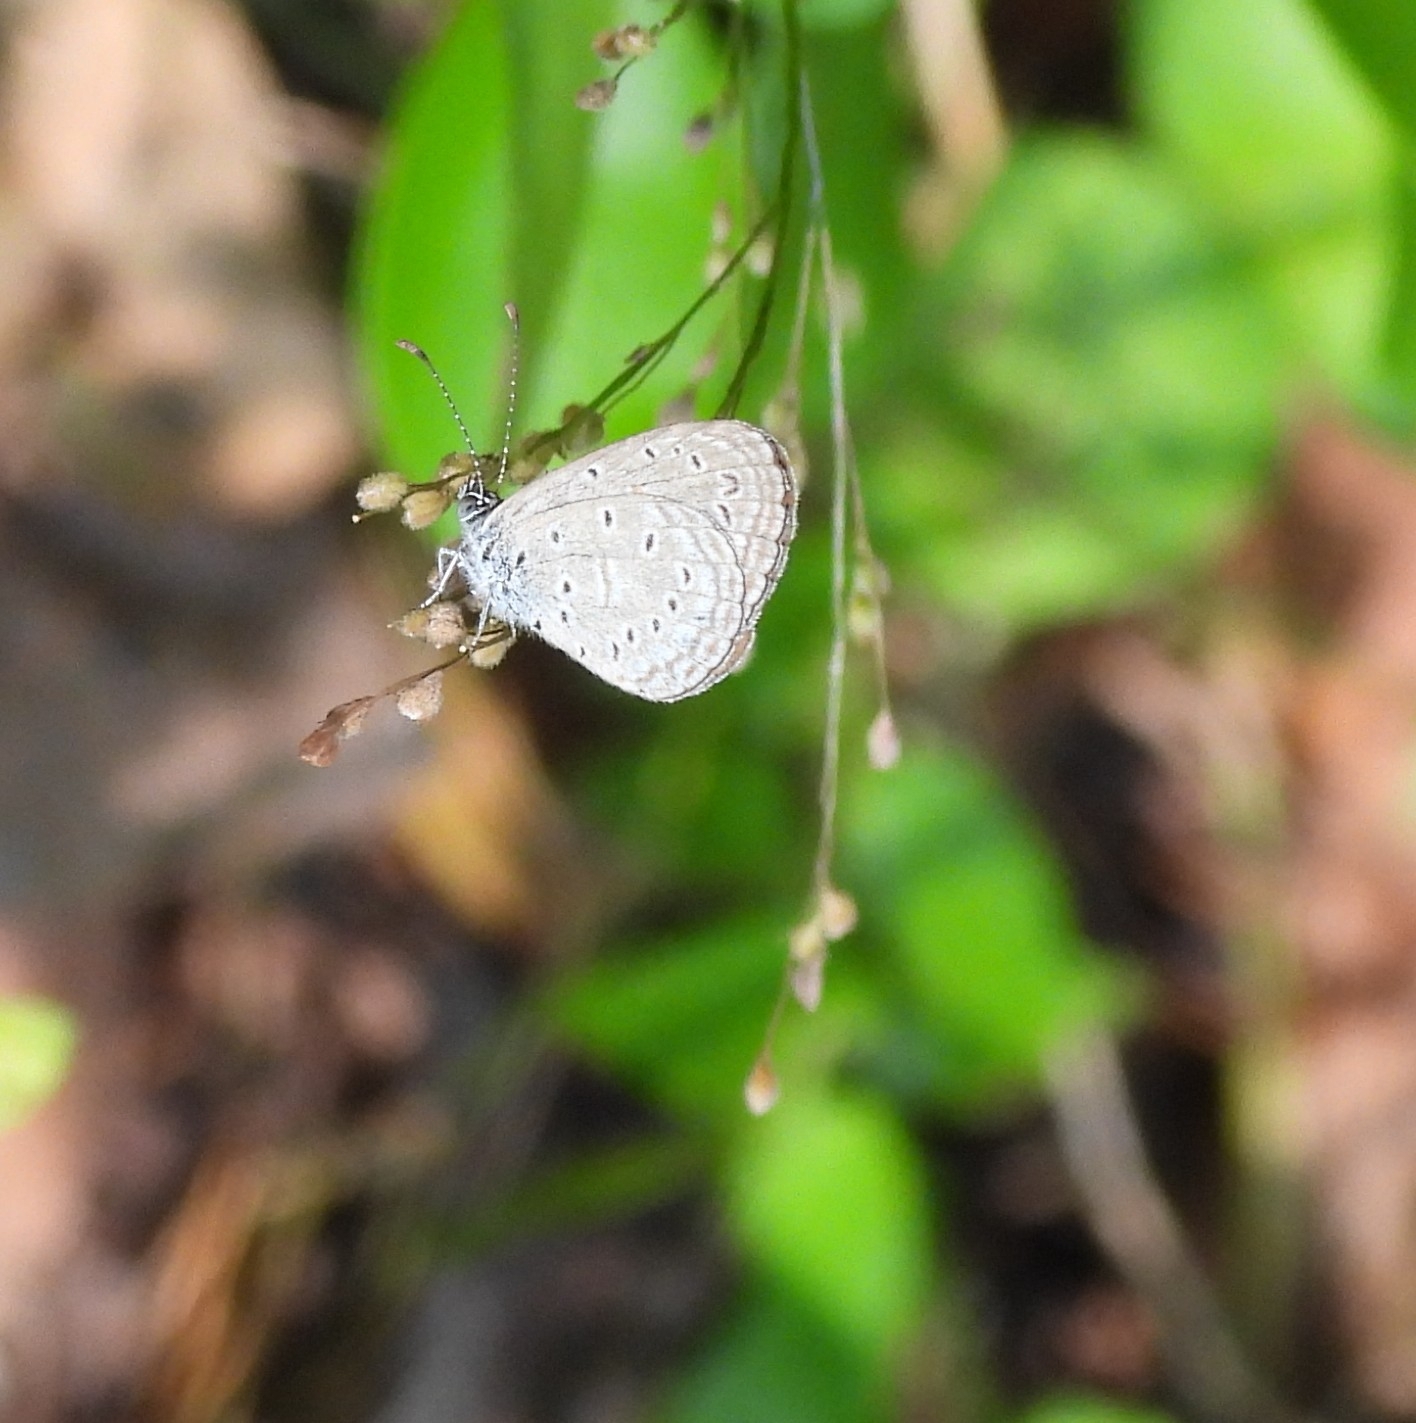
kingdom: Animalia
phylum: Arthropoda
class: Insecta
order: Lepidoptera
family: Lycaenidae
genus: Zizula
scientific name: Zizula hylax
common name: Gaika blue
